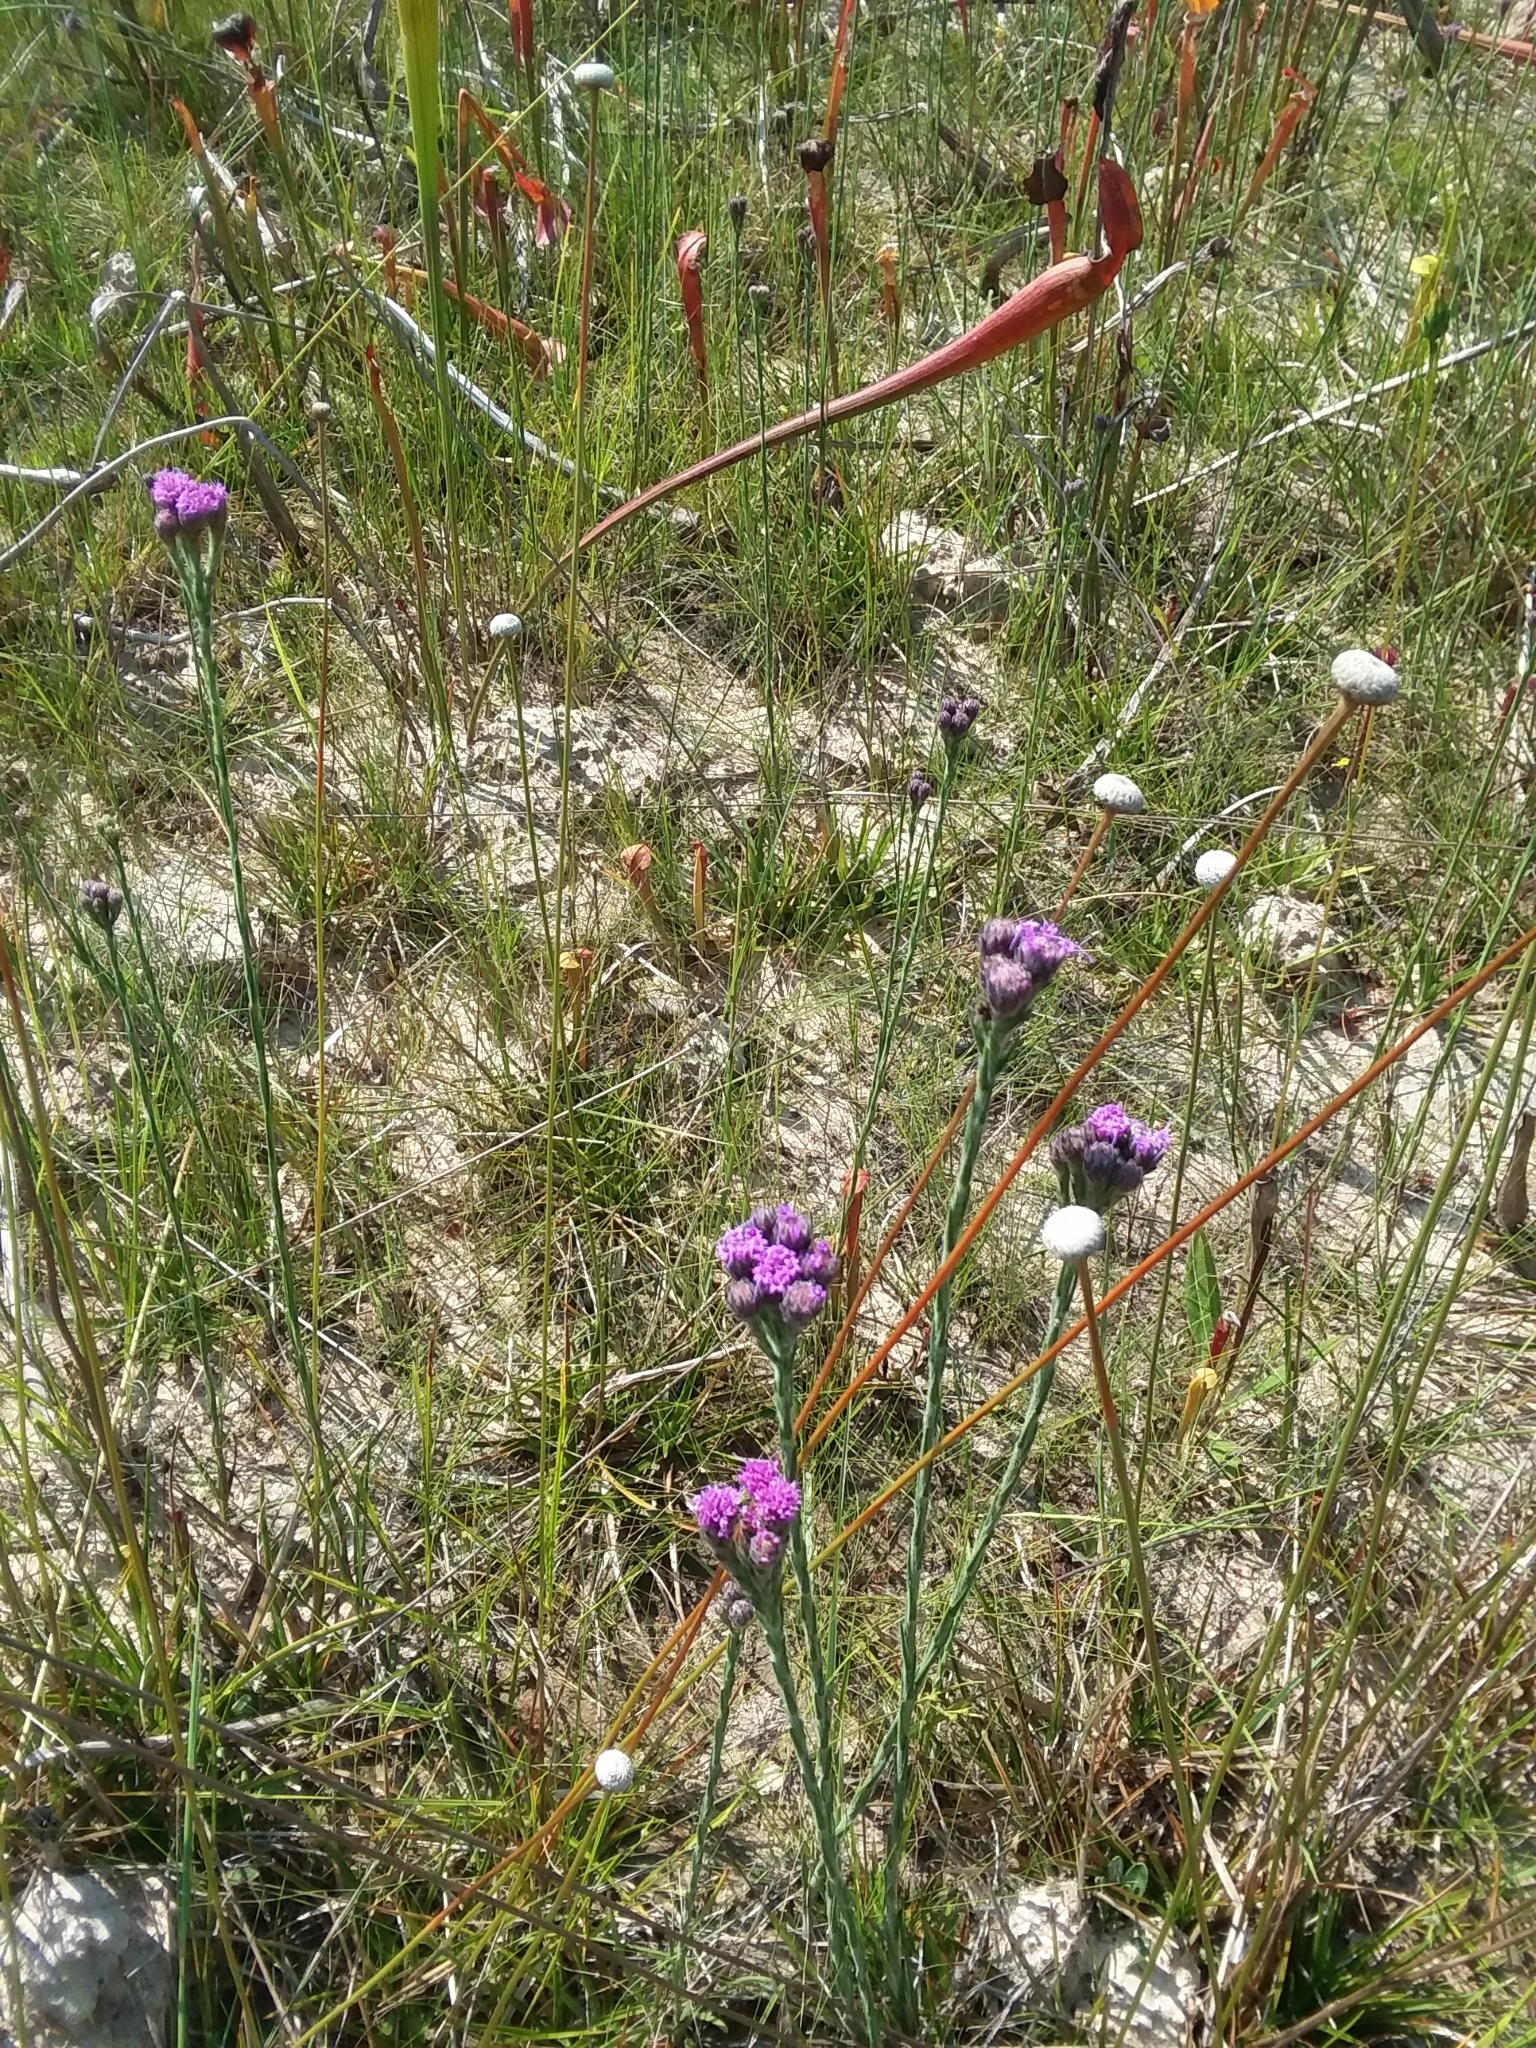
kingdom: Plantae
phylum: Tracheophyta
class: Magnoliopsida
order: Asterales
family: Asteraceae
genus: Carphephorus
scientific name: Carphephorus pseudoliatris
